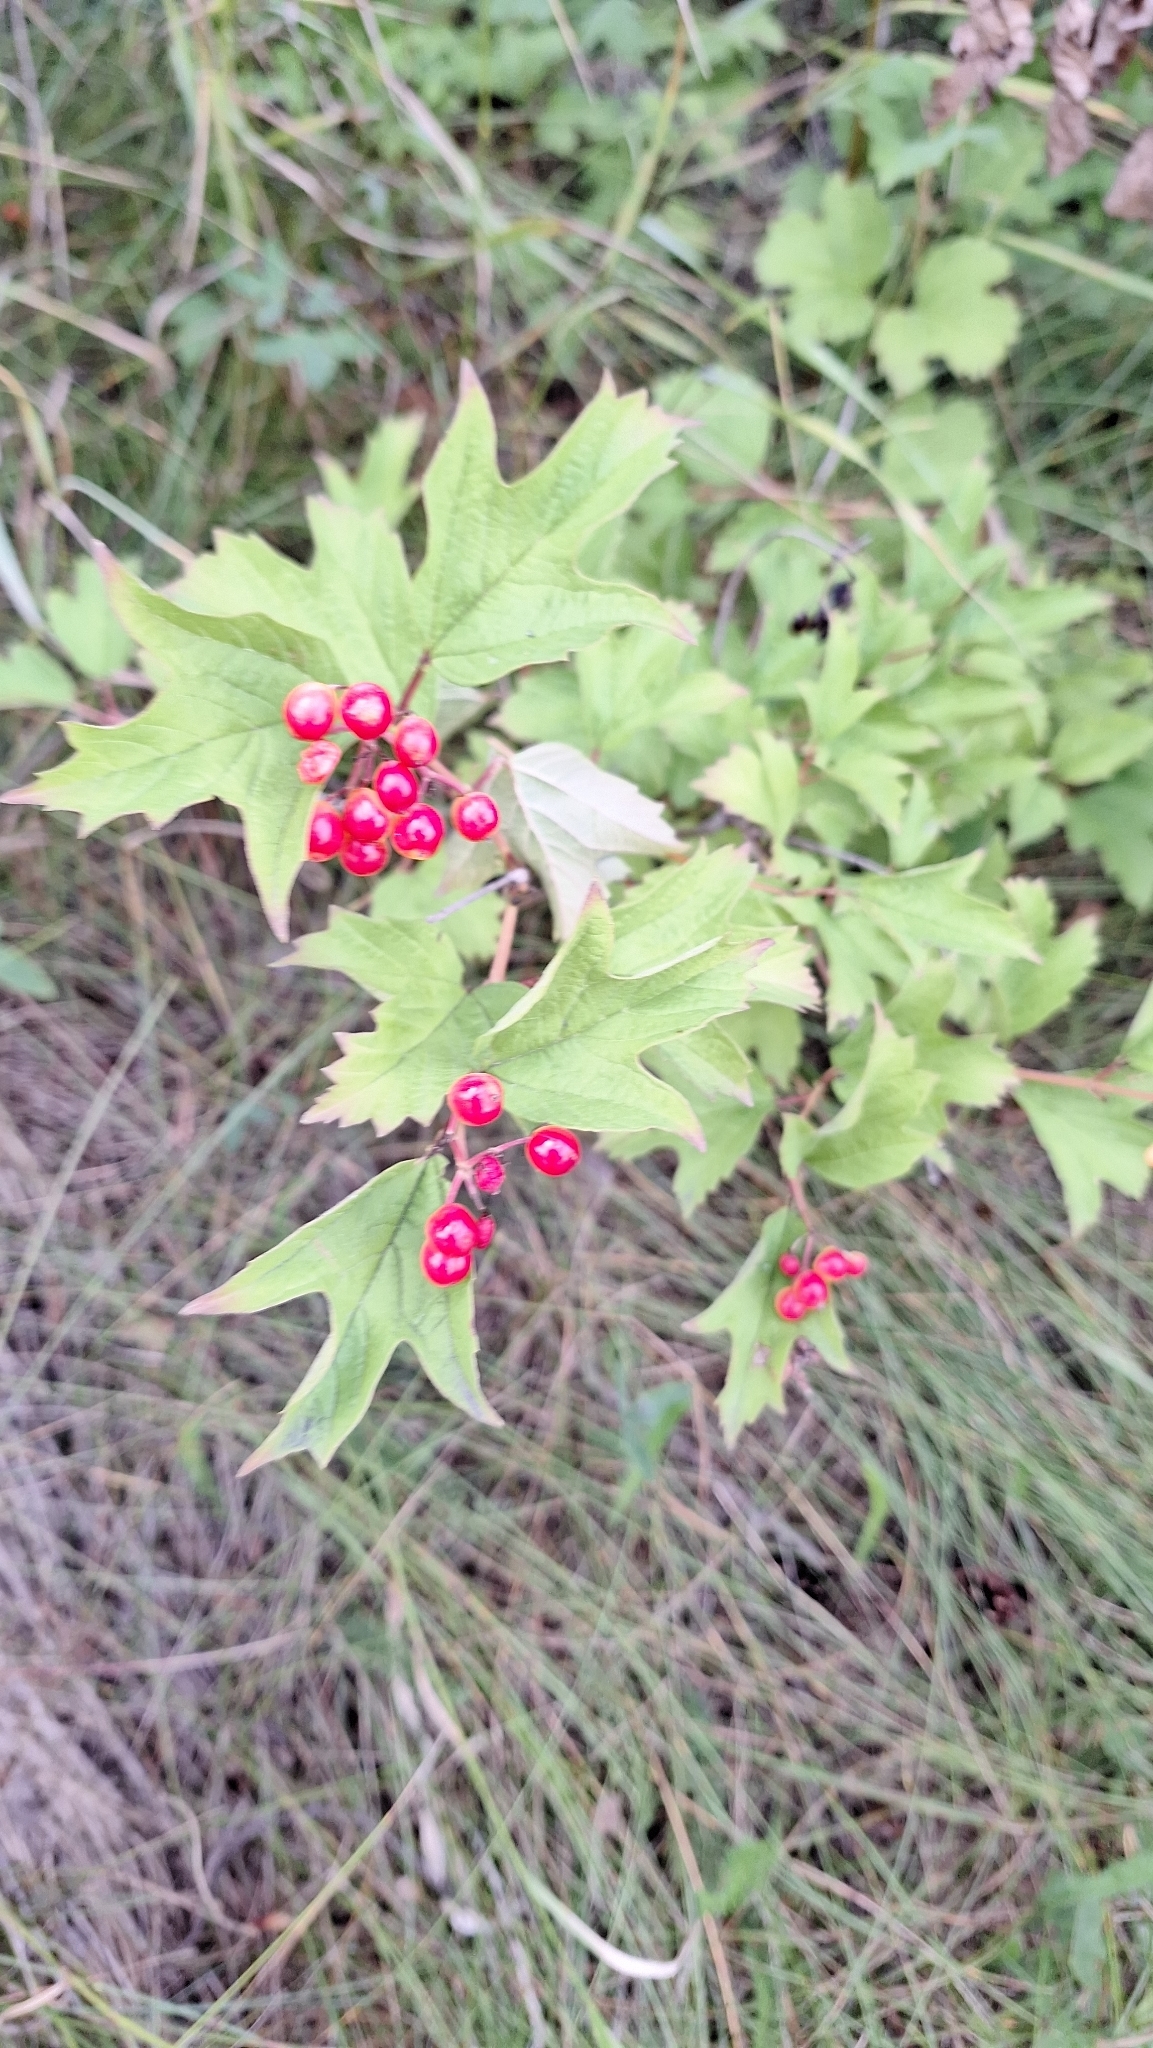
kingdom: Plantae
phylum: Tracheophyta
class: Magnoliopsida
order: Dipsacales
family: Viburnaceae
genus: Viburnum
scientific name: Viburnum opulus
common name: Guelder-rose
